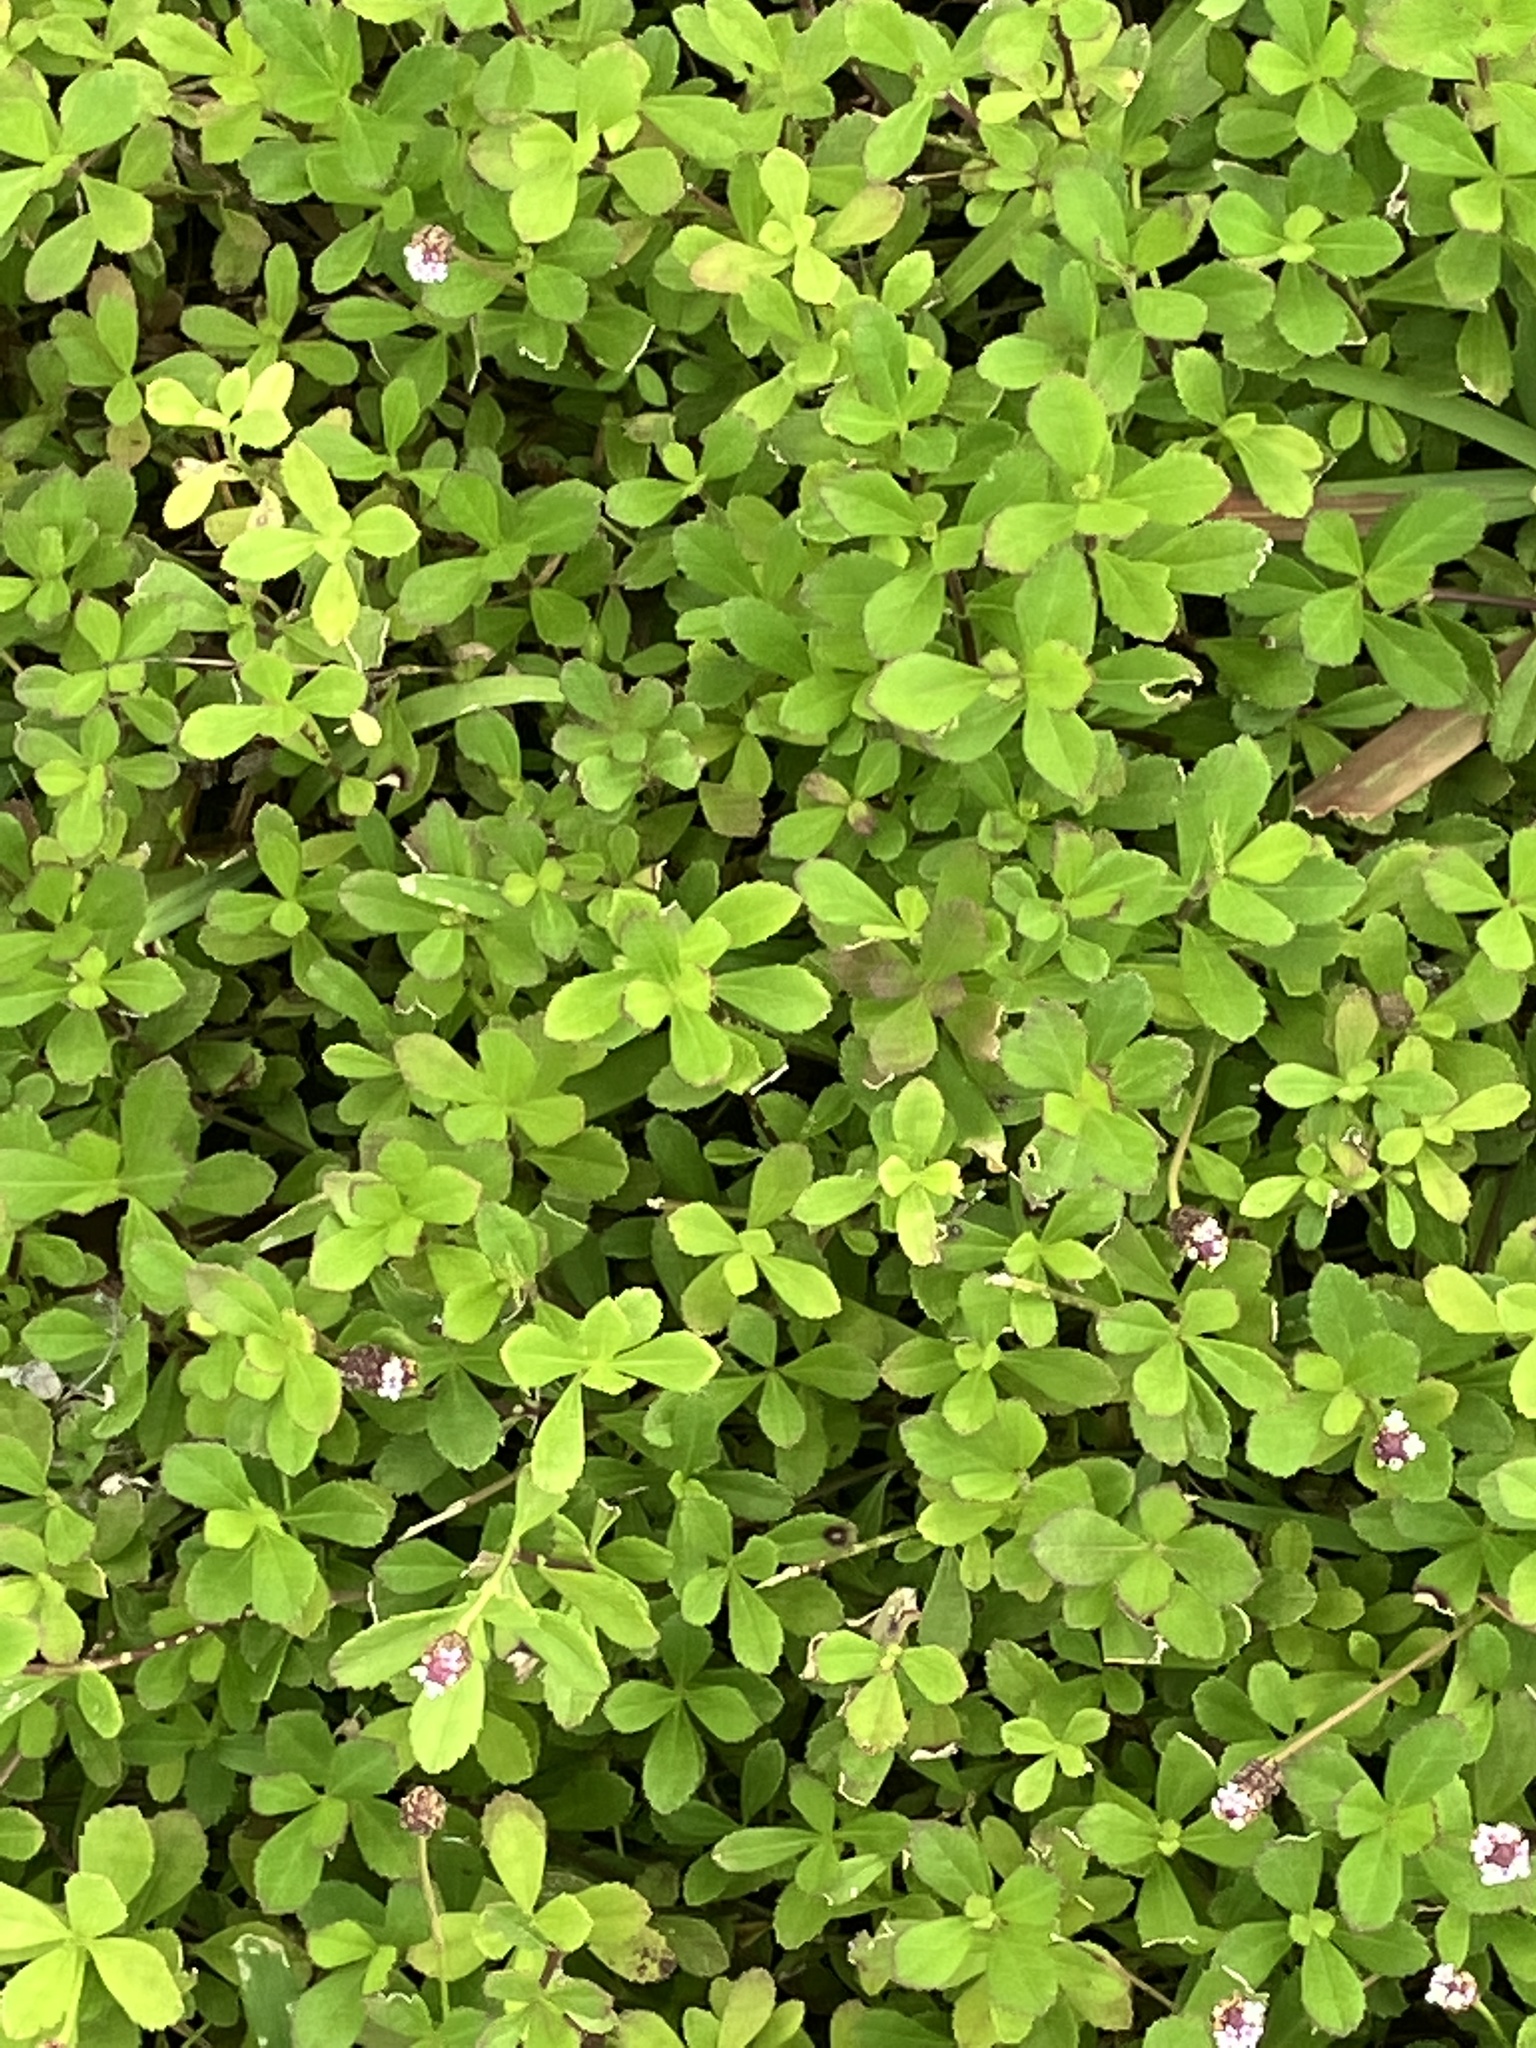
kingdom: Plantae
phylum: Tracheophyta
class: Magnoliopsida
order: Lamiales
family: Verbenaceae
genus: Phyla
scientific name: Phyla nodiflora
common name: Frogfruit
